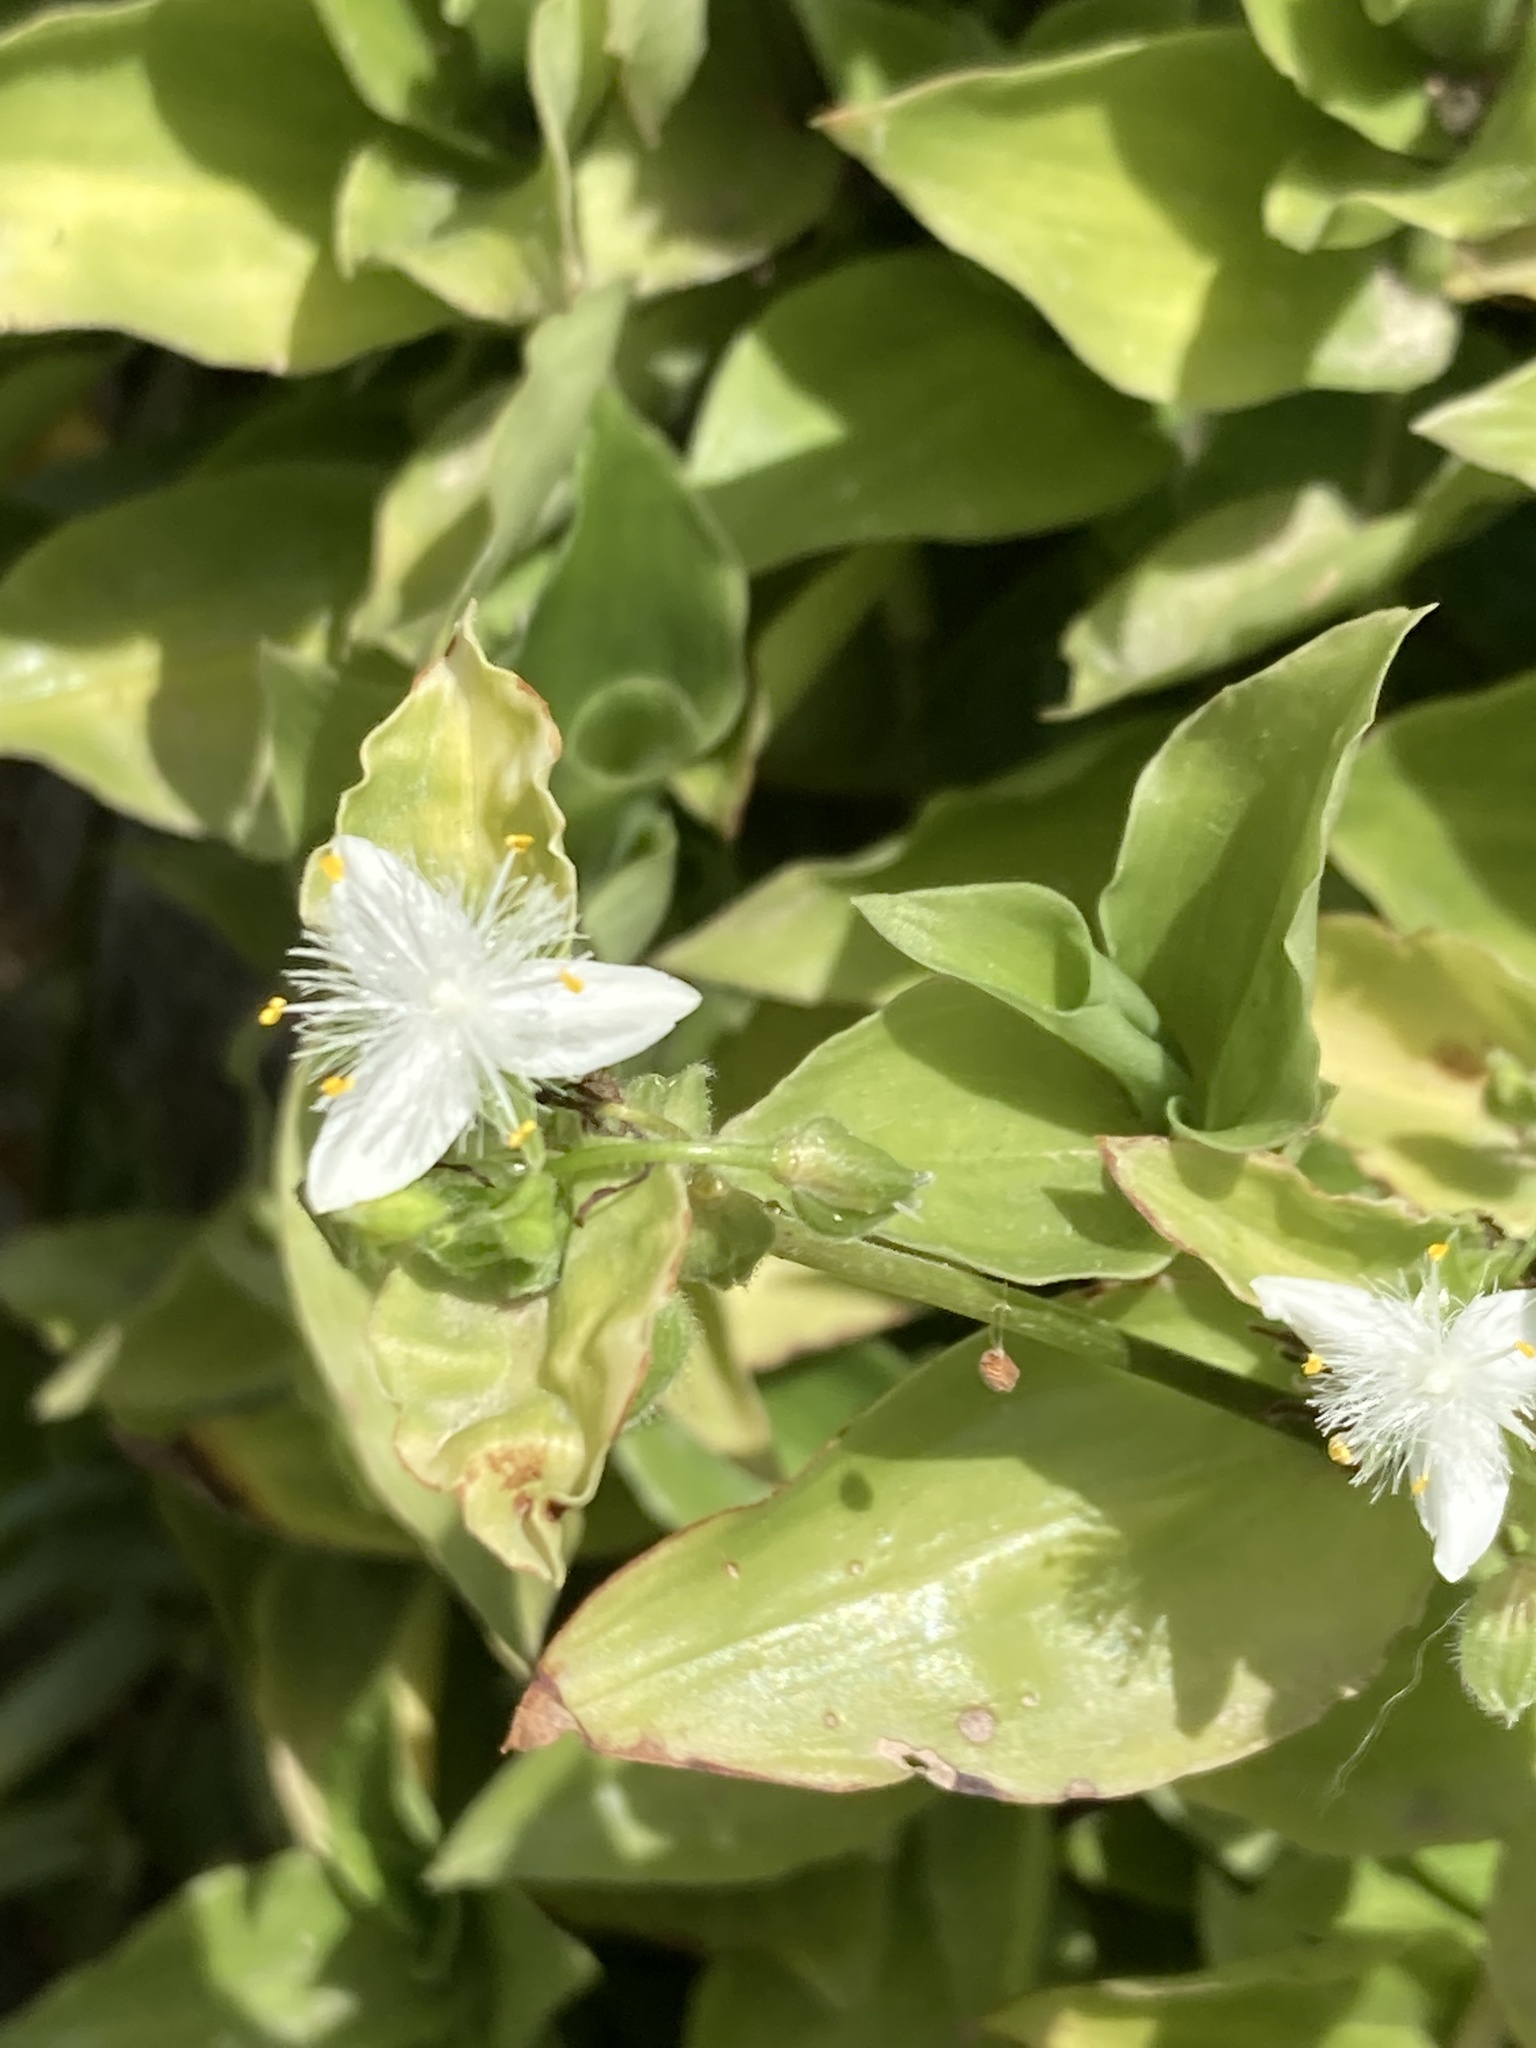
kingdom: Plantae
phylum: Tracheophyta
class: Liliopsida
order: Commelinales
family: Commelinaceae
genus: Tradescantia
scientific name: Tradescantia fluminensis
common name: Wandering-jew
